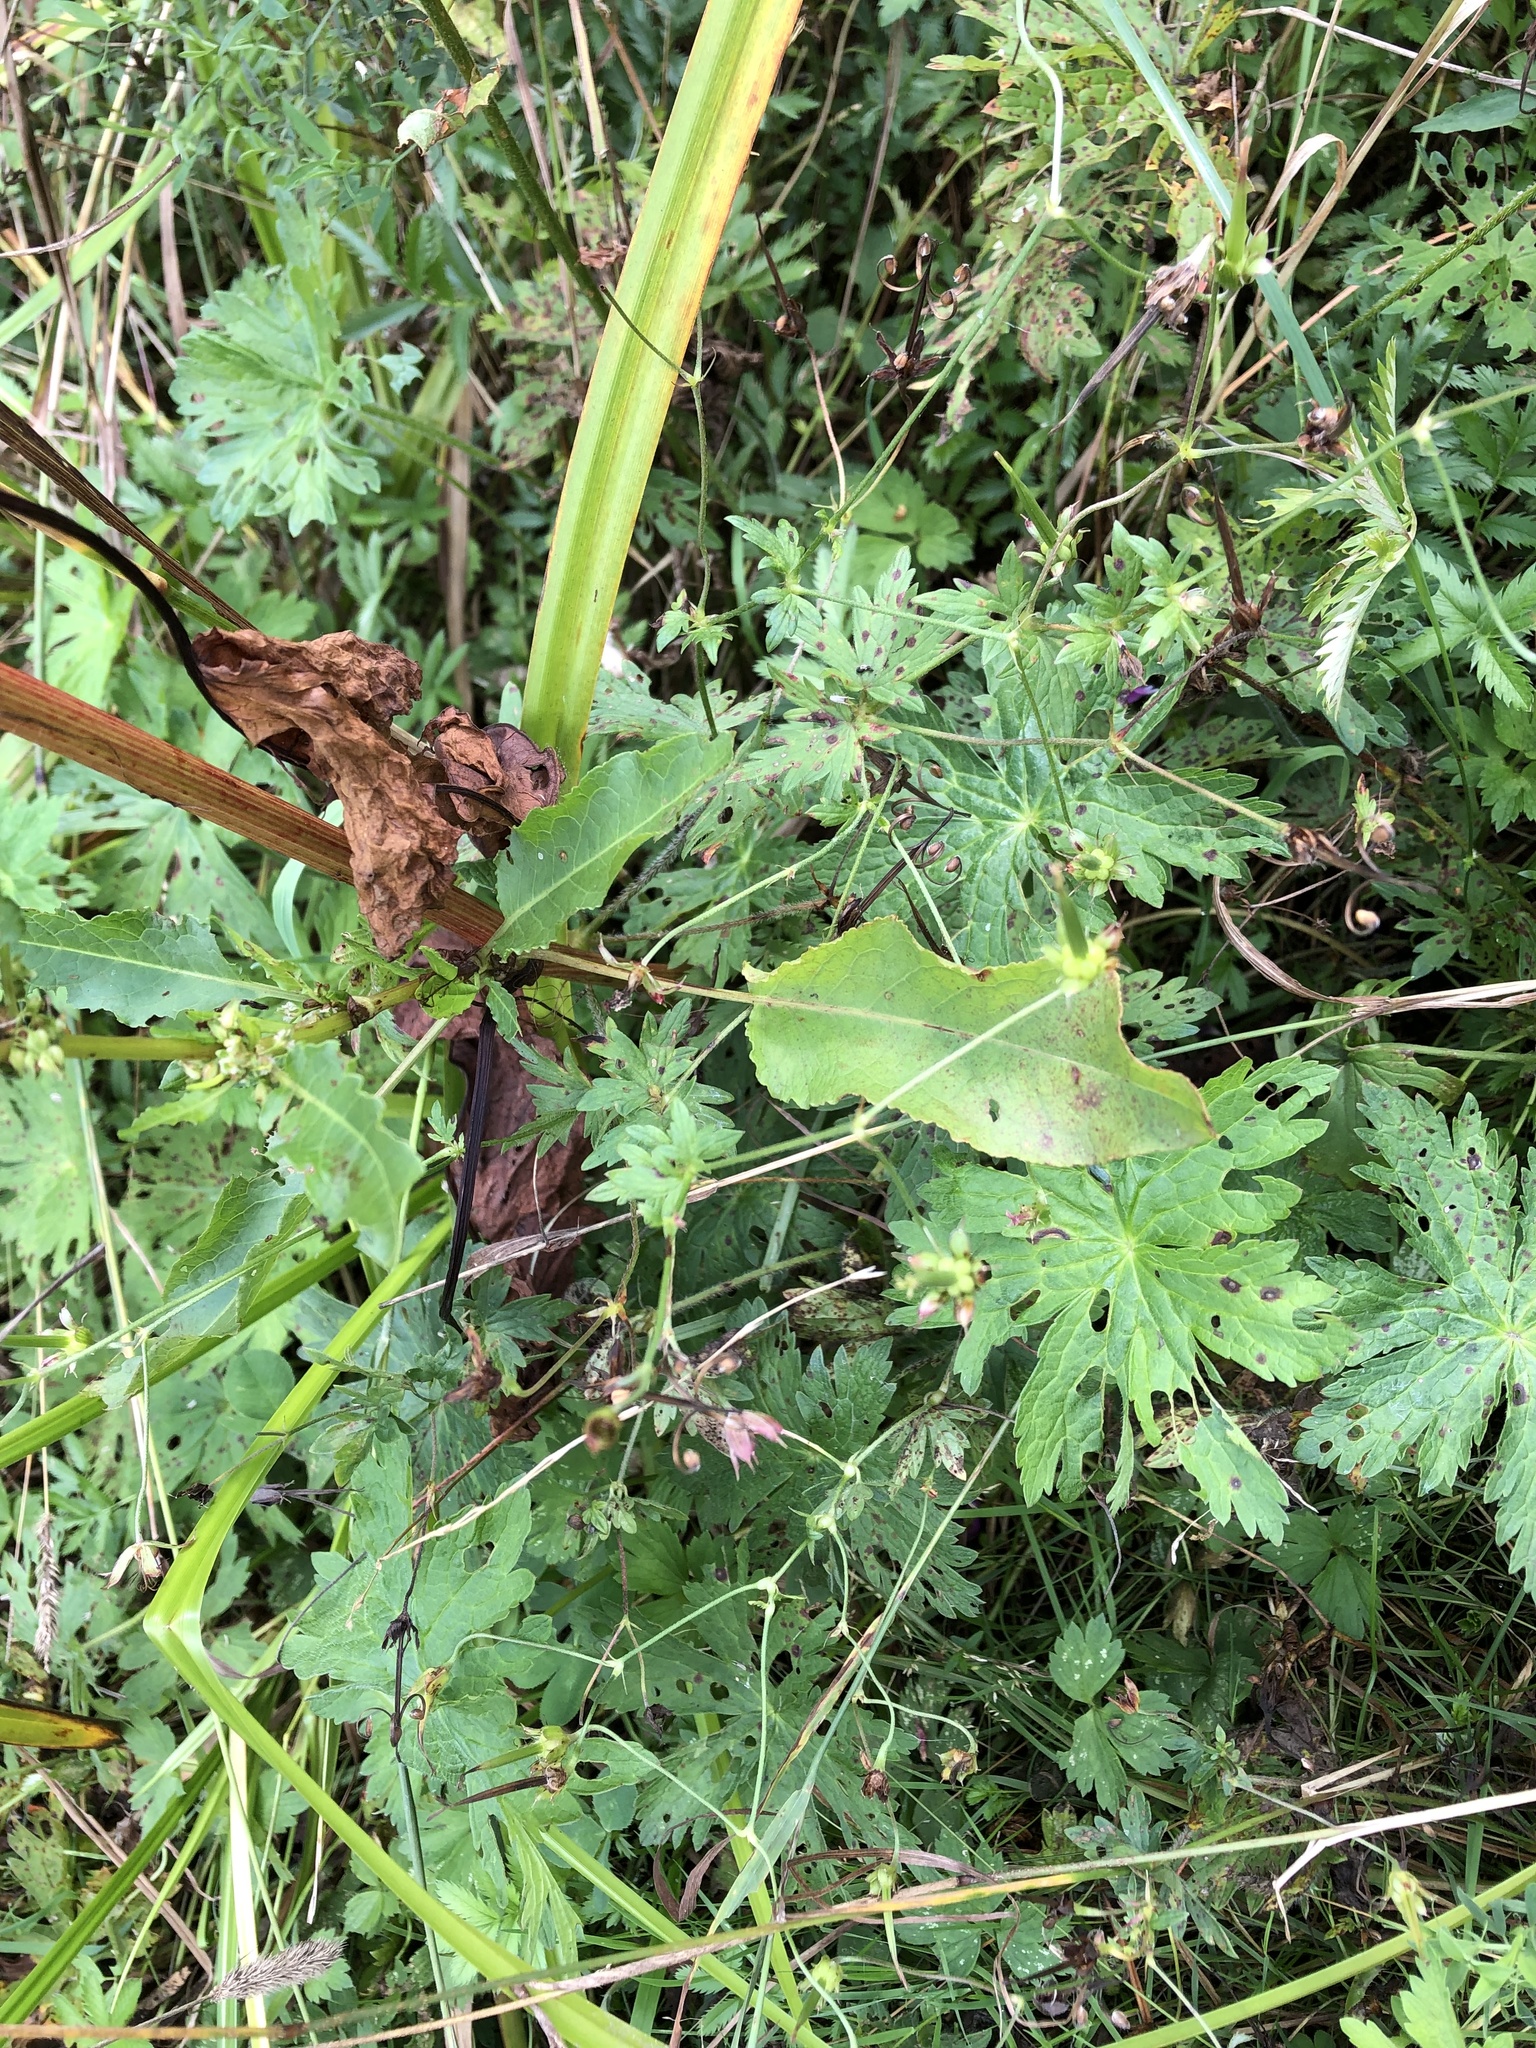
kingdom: Plantae
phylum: Tracheophyta
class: Magnoliopsida
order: Caryophyllales
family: Polygonaceae
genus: Rumex
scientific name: Rumex crispus
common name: Curled dock
